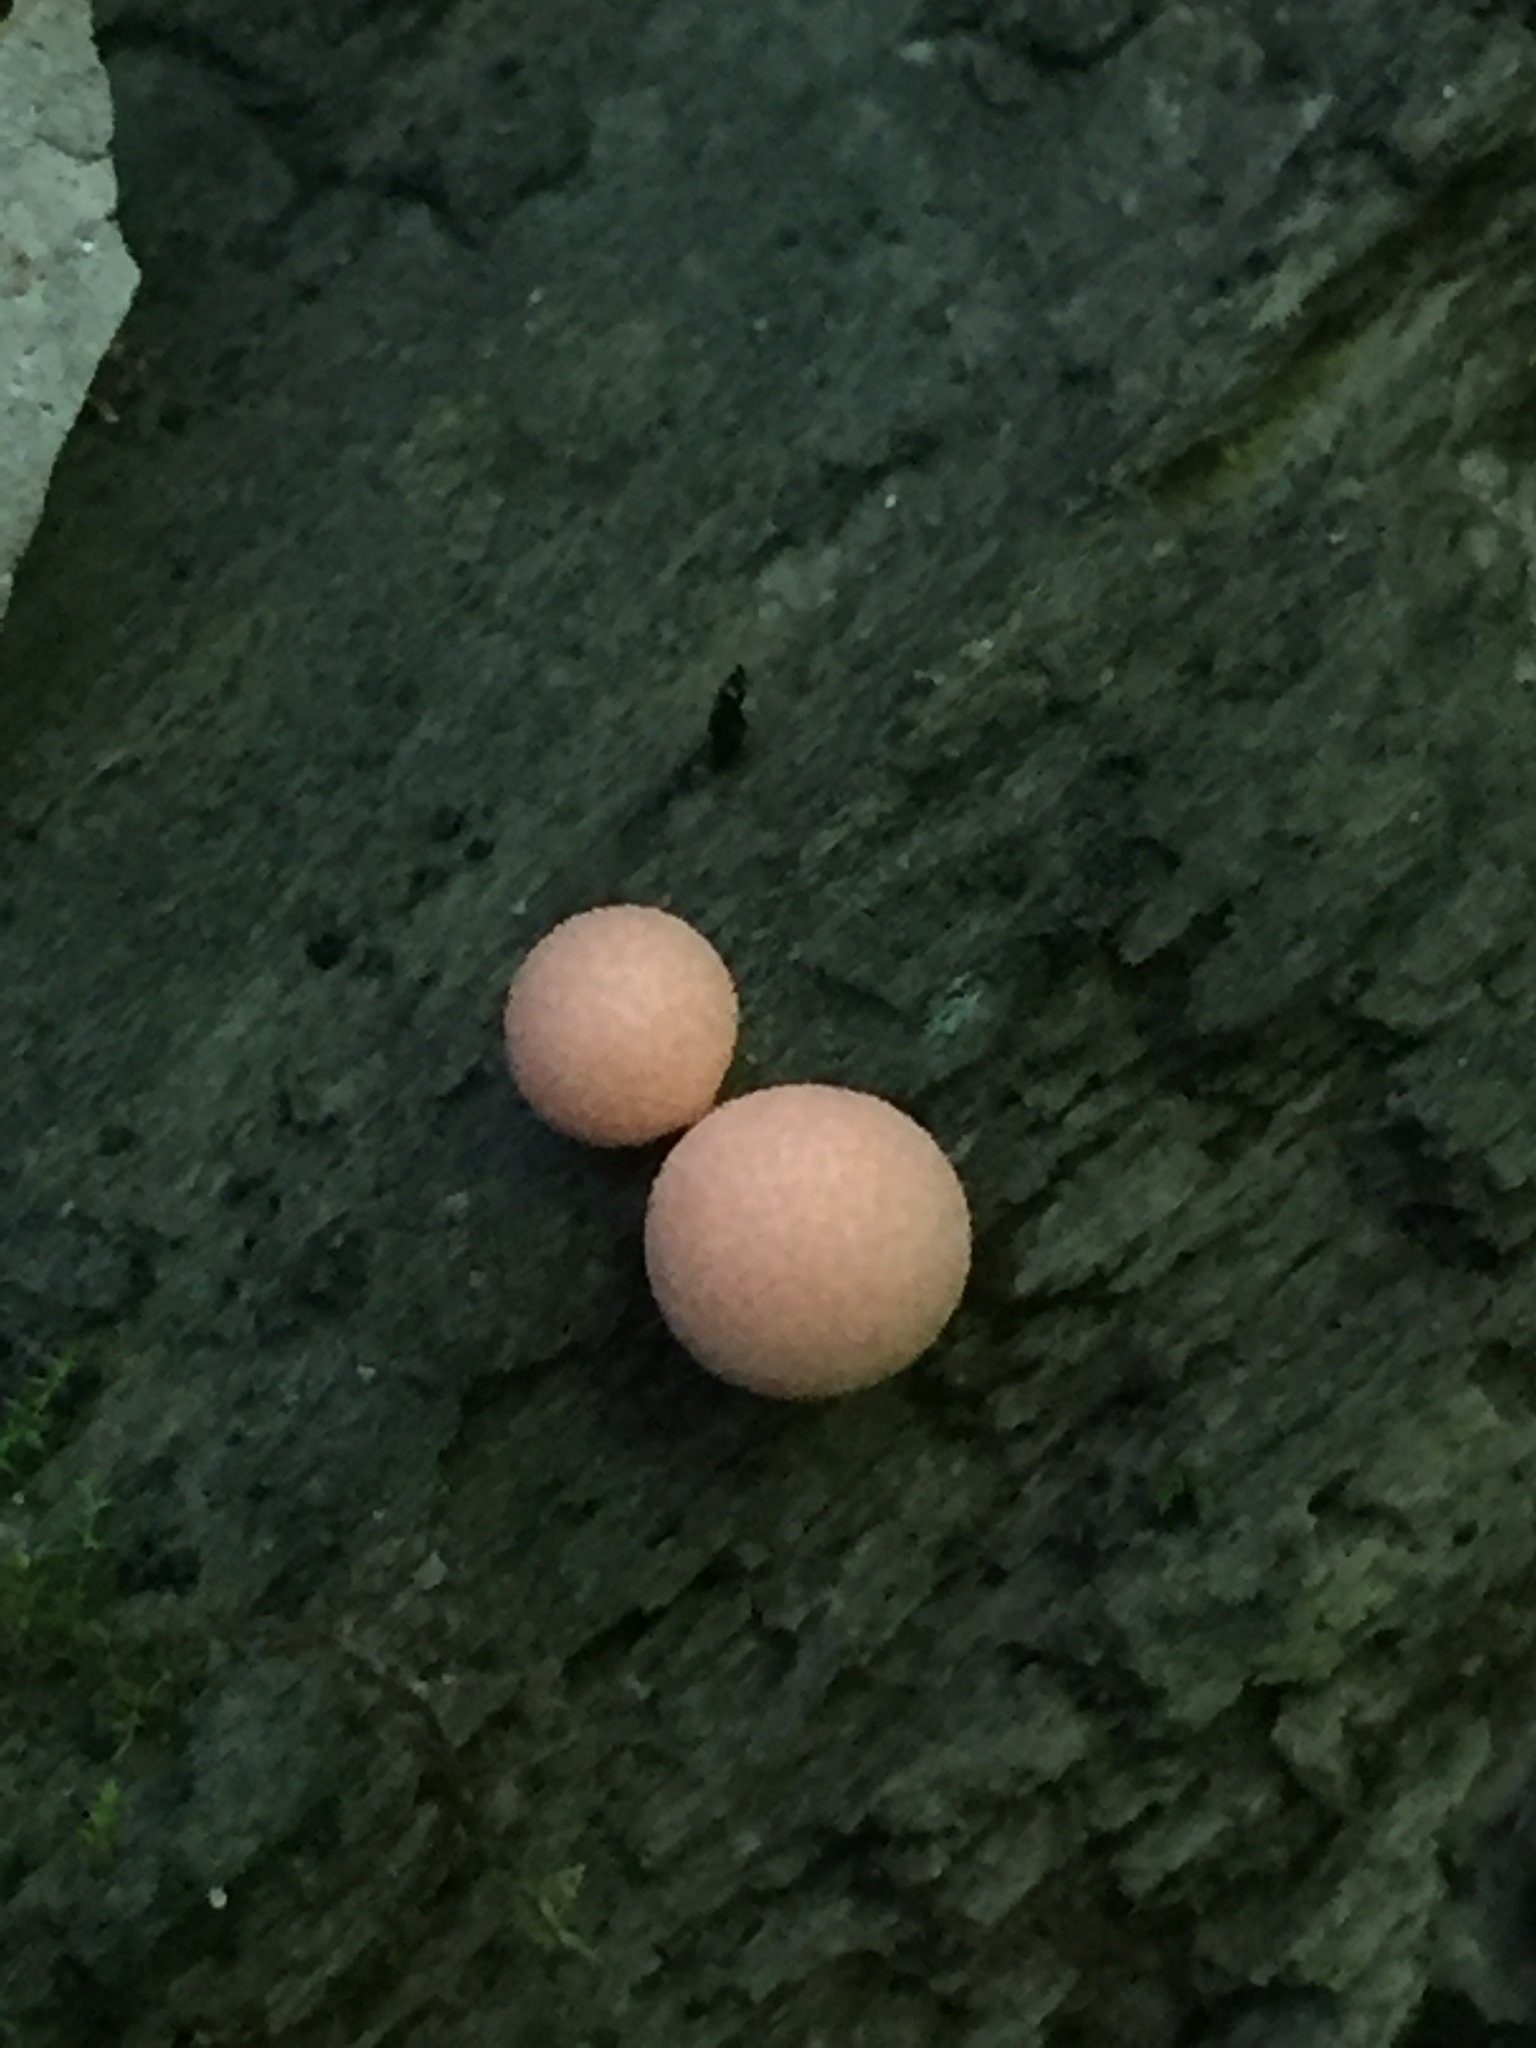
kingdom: Protozoa
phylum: Mycetozoa
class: Myxomycetes
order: Cribrariales
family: Tubiferaceae
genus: Lycogala
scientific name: Lycogala epidendrum
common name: Wolf's milk
